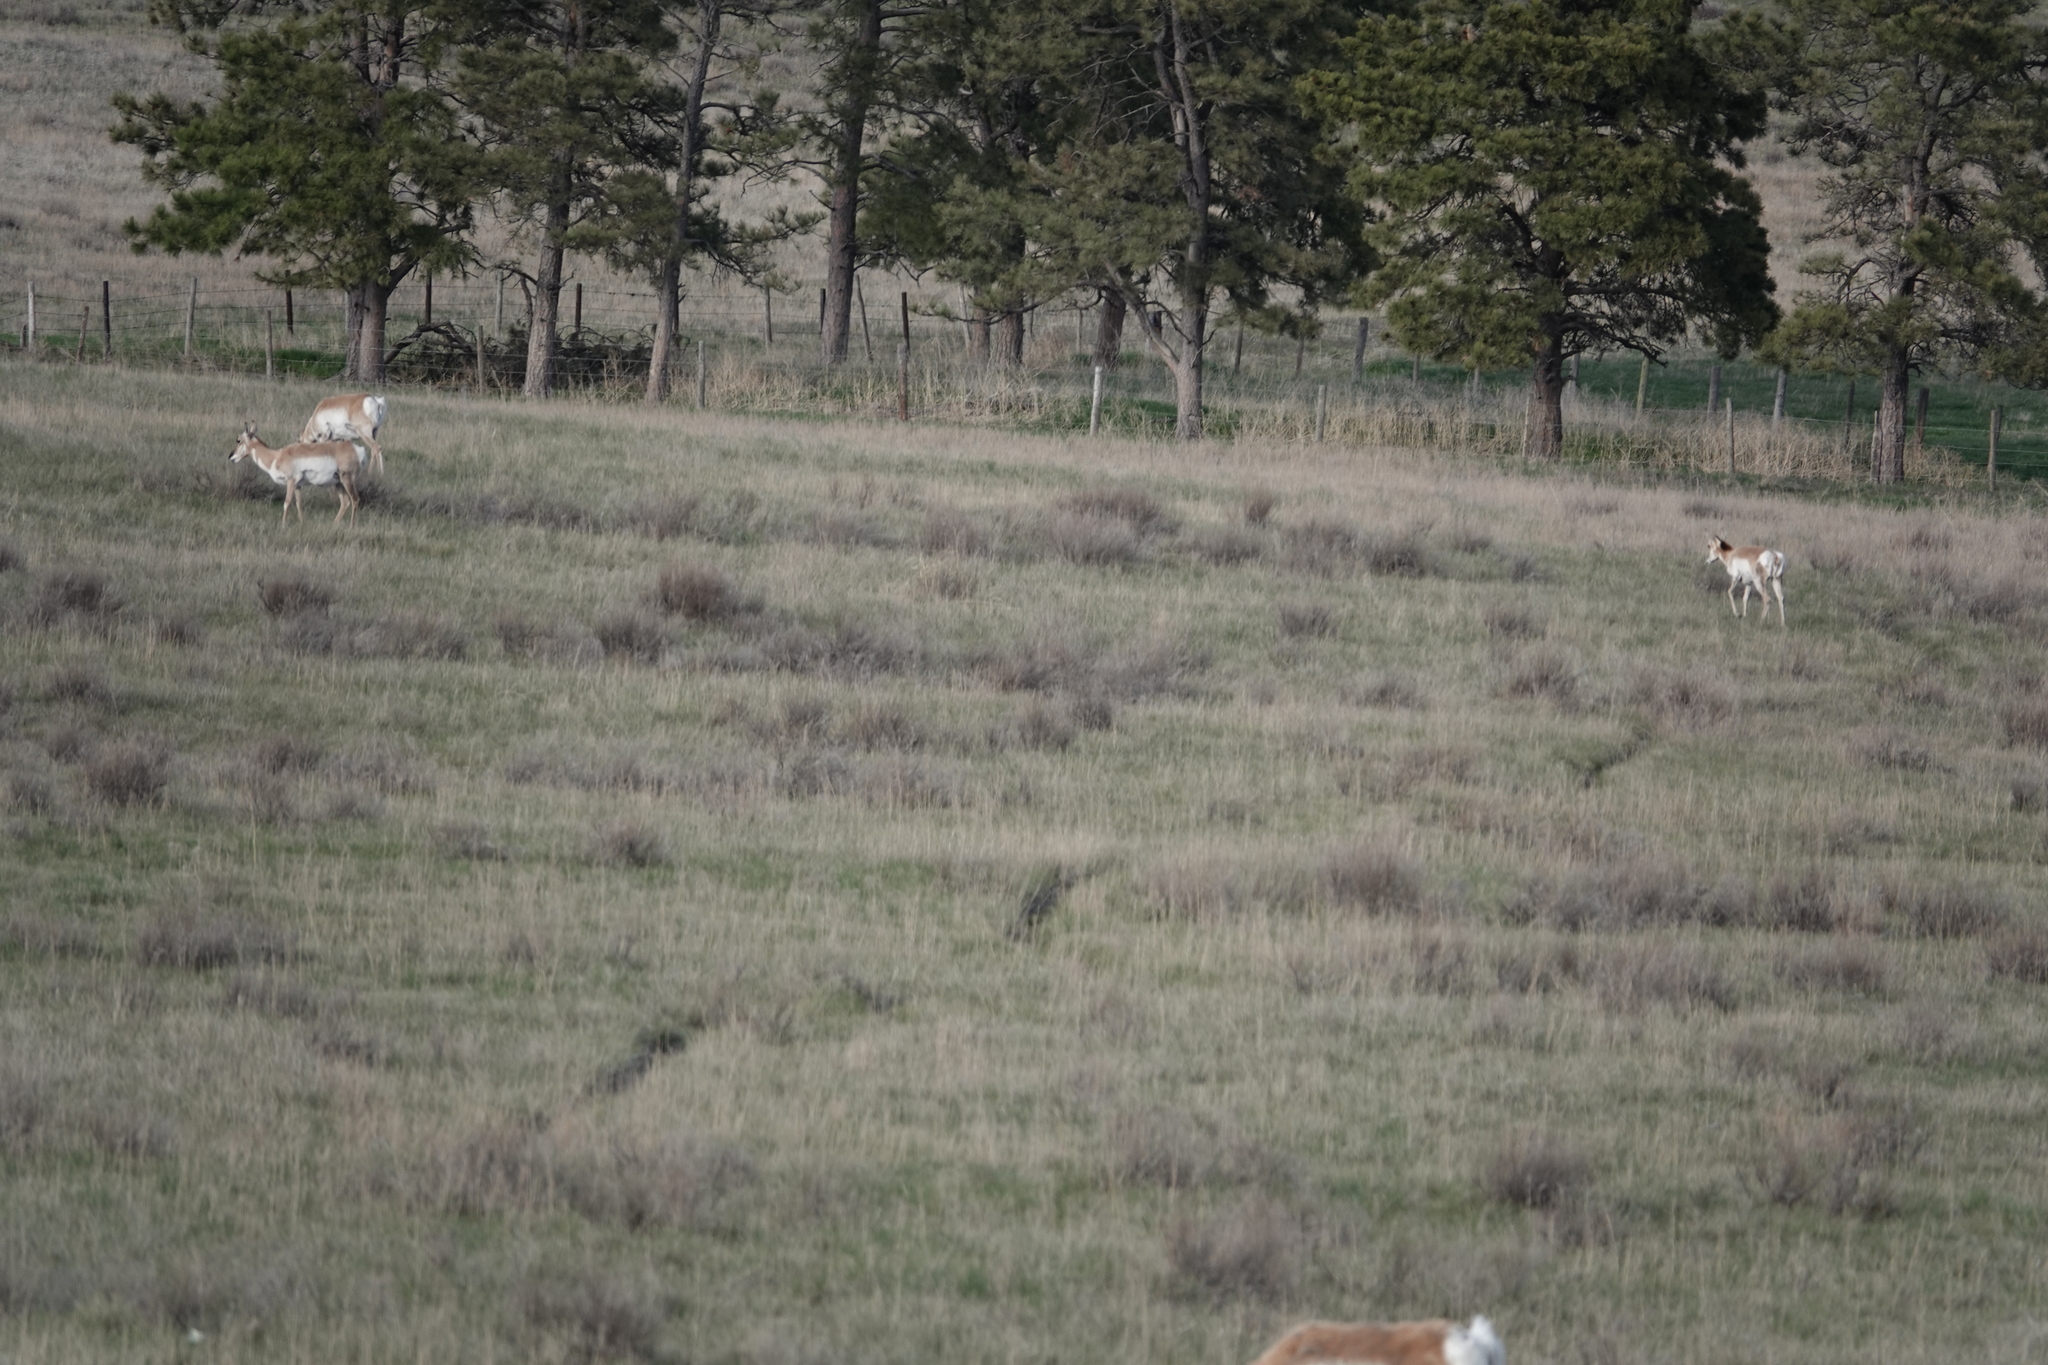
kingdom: Animalia
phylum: Chordata
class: Mammalia
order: Artiodactyla
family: Antilocapridae
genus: Antilocapra
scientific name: Antilocapra americana
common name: Pronghorn
